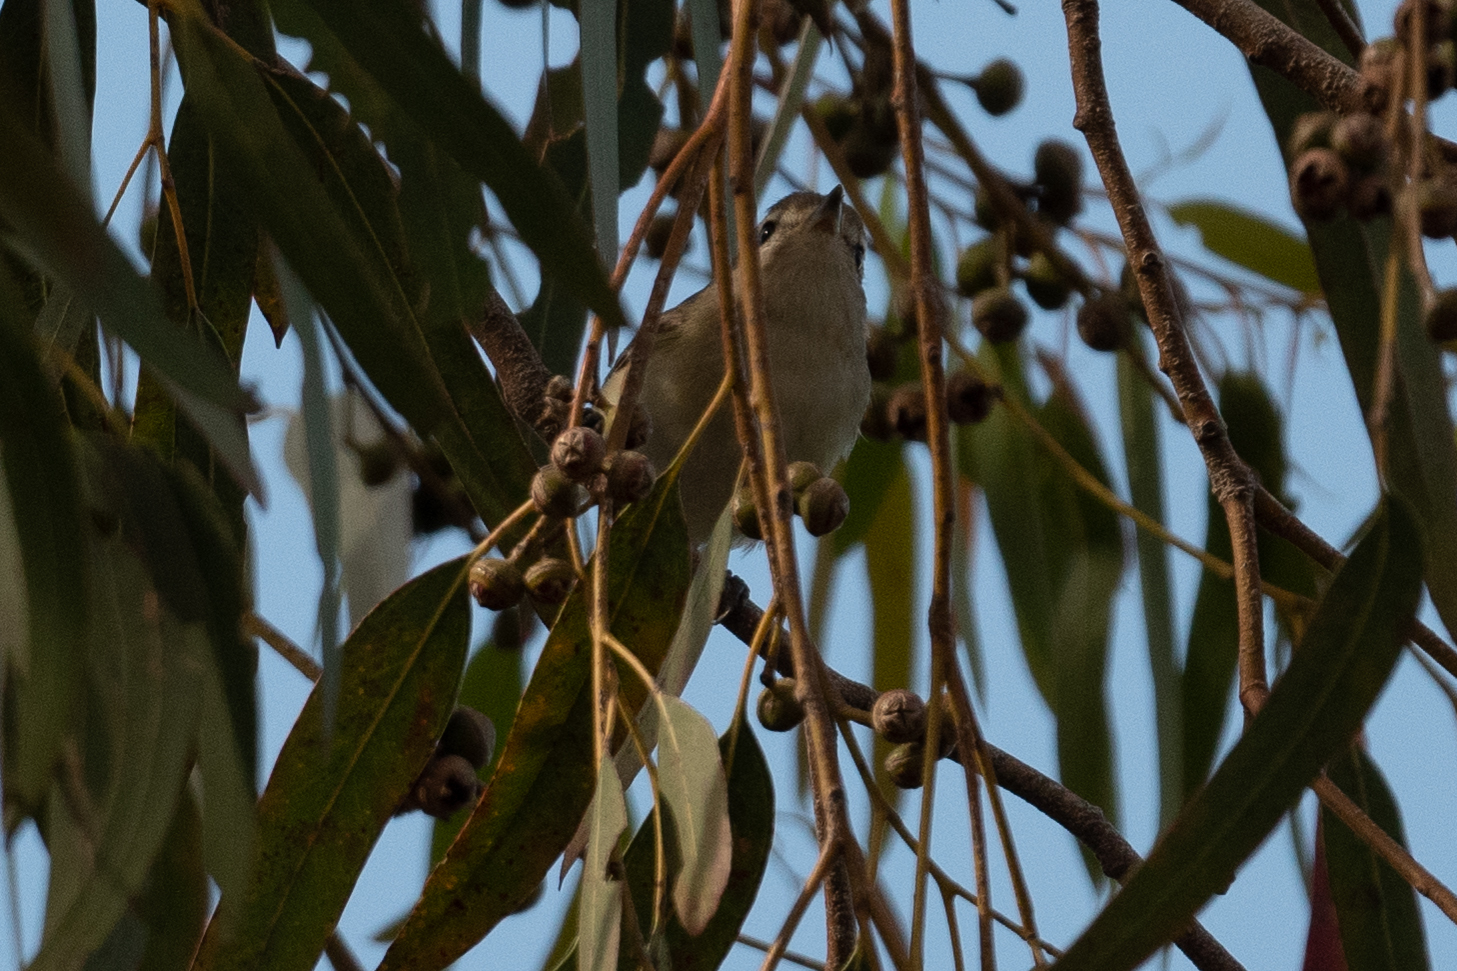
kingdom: Animalia
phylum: Chordata
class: Aves
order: Passeriformes
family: Vireonidae
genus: Vireo
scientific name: Vireo gilvus
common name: Warbling vireo
